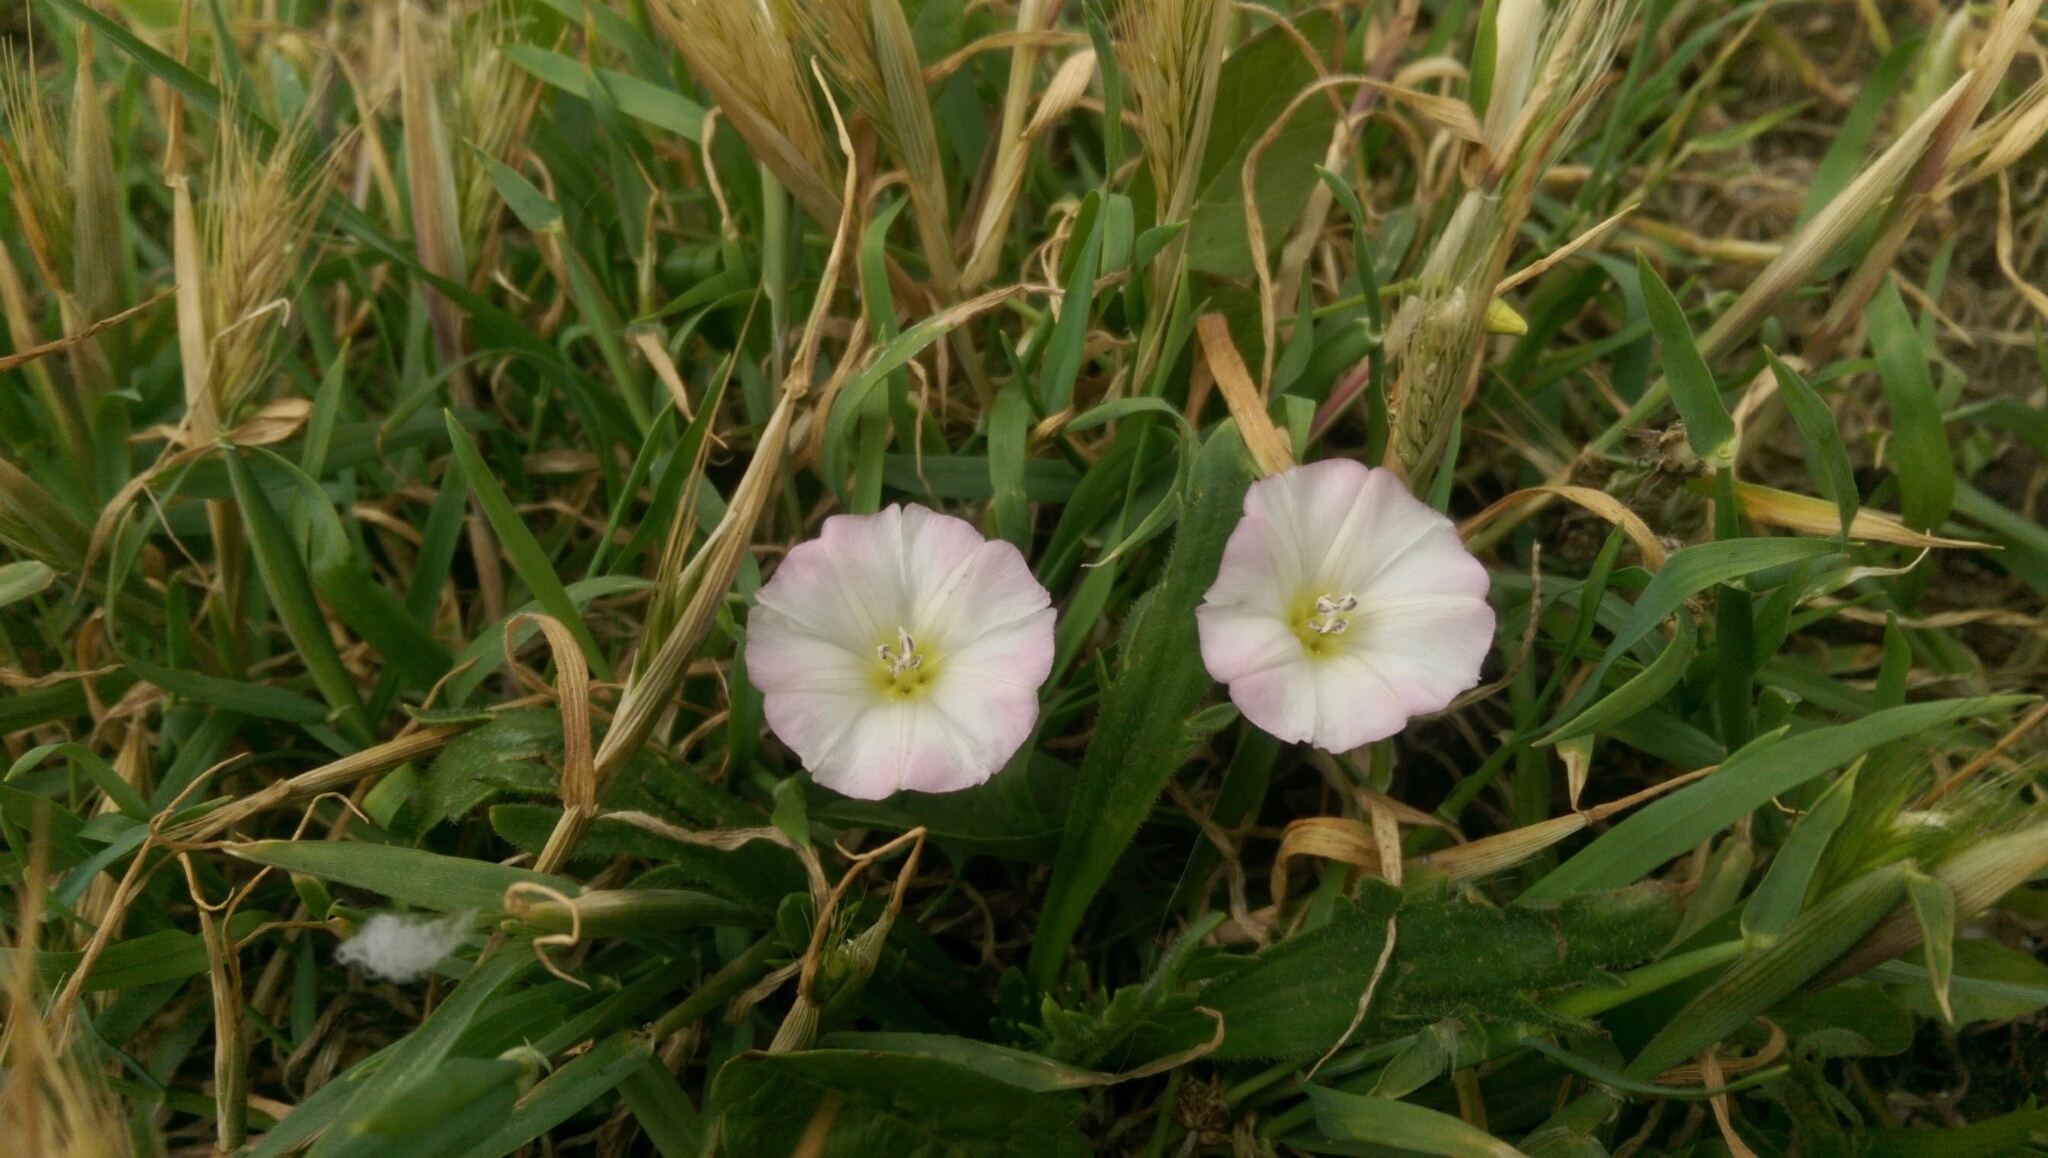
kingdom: Plantae
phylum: Tracheophyta
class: Magnoliopsida
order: Solanales
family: Convolvulaceae
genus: Convolvulus
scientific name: Convolvulus arvensis
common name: Field bindweed
